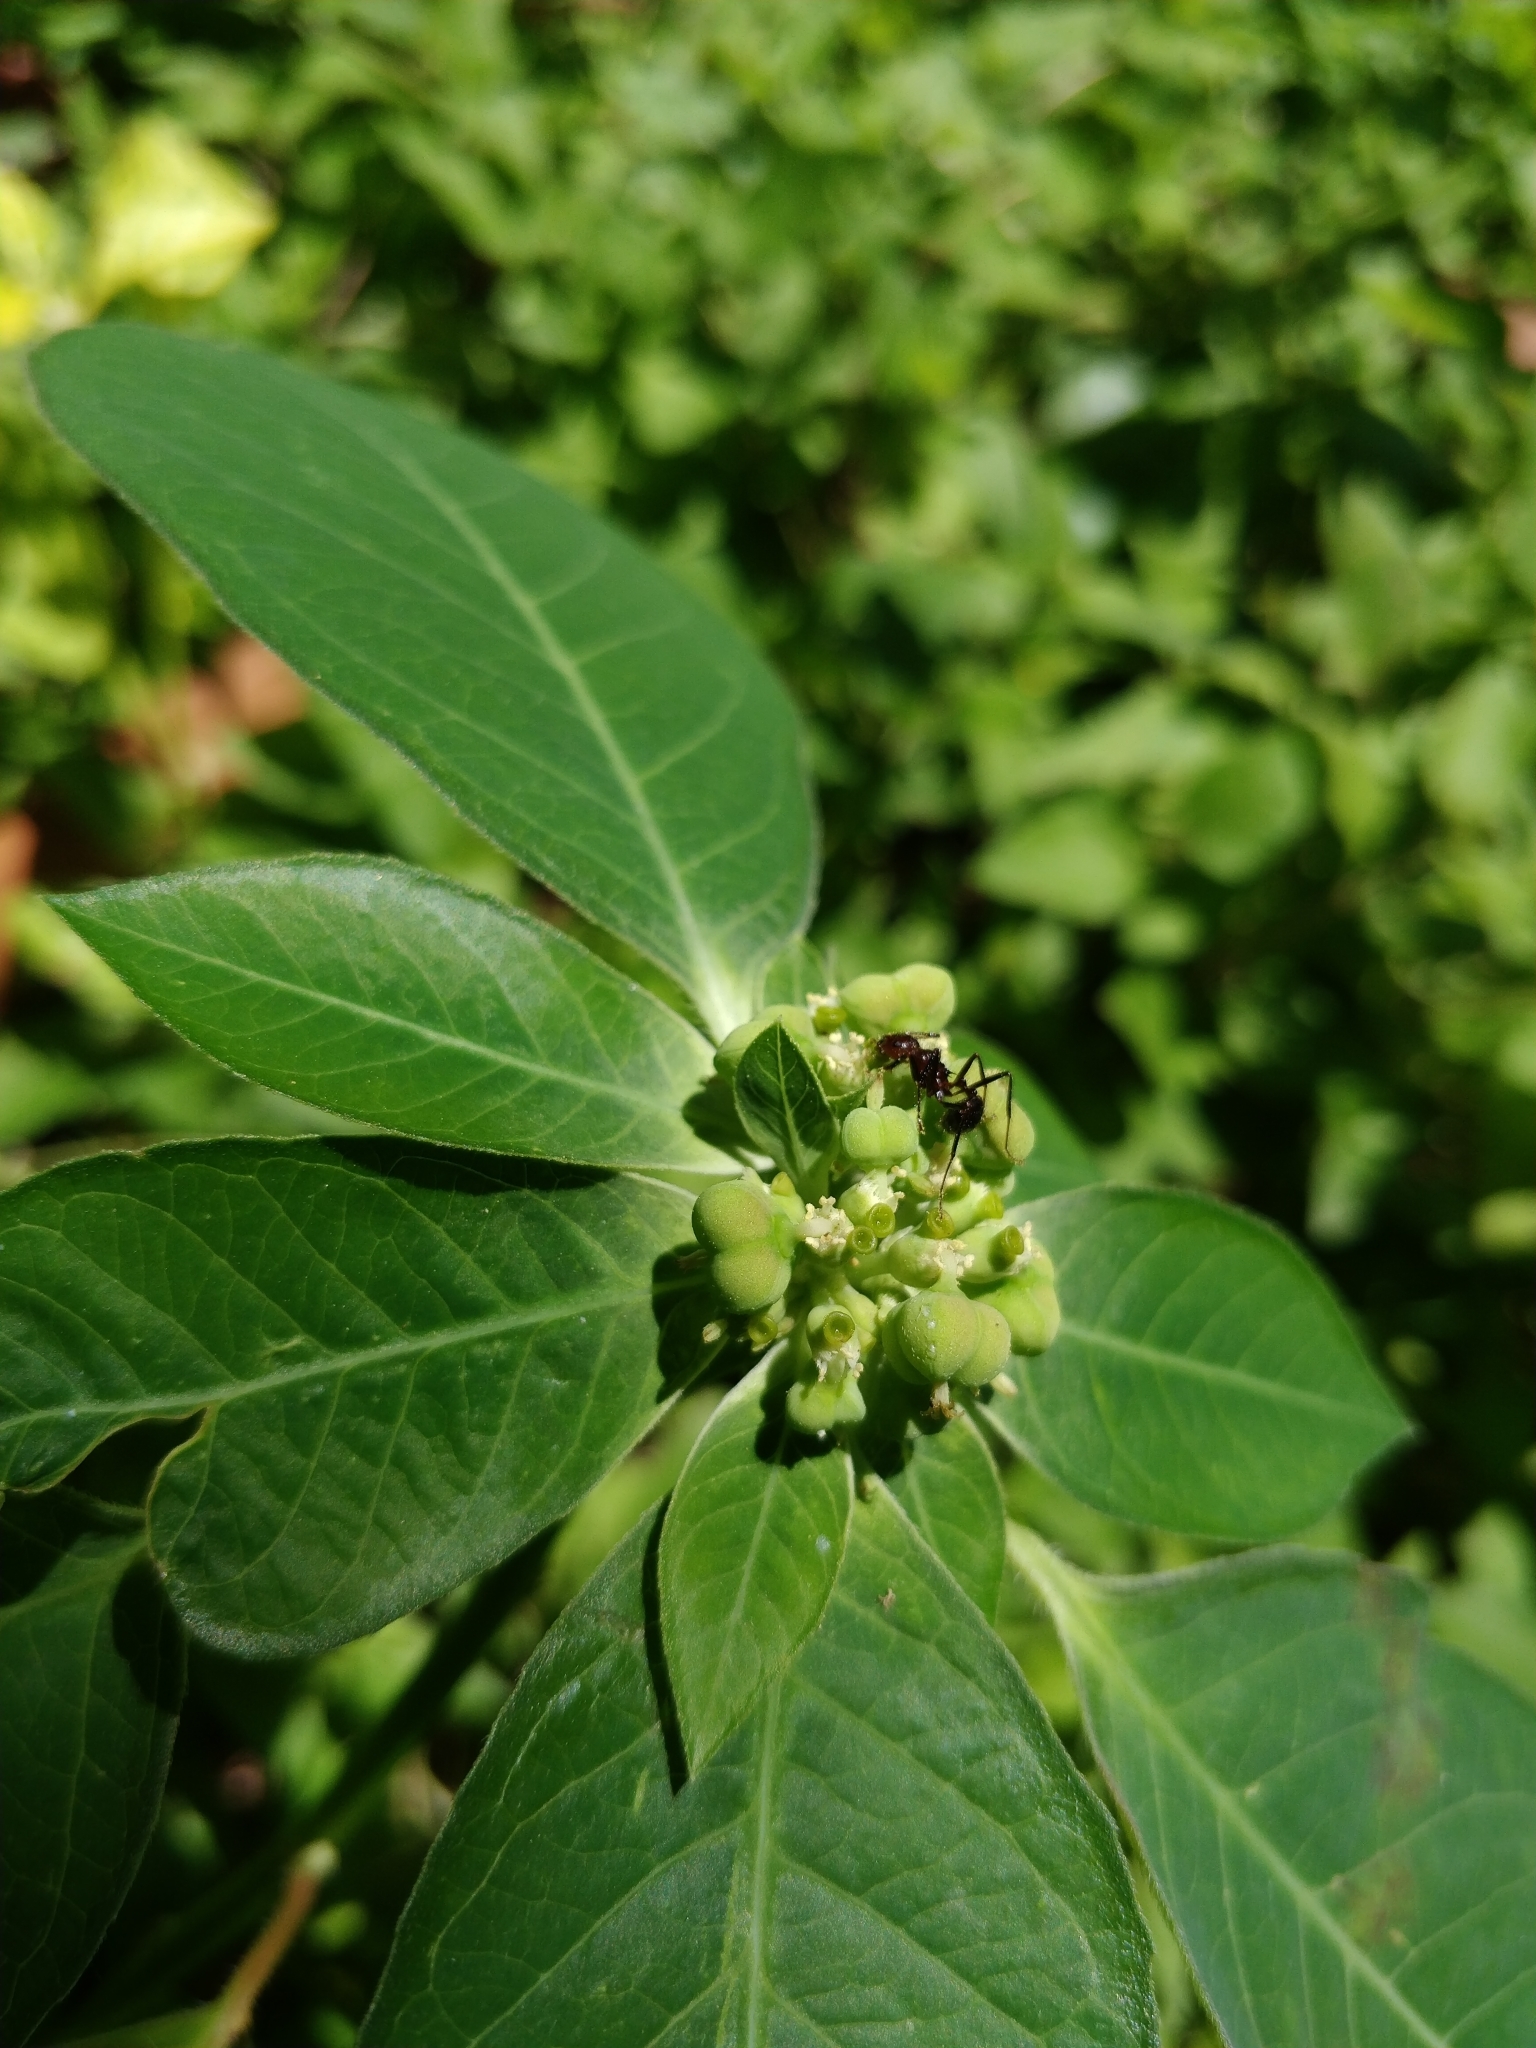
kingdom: Plantae
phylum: Tracheophyta
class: Magnoliopsida
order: Malpighiales
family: Euphorbiaceae
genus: Euphorbia
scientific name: Euphorbia heterophylla
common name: Mexican fireplant
